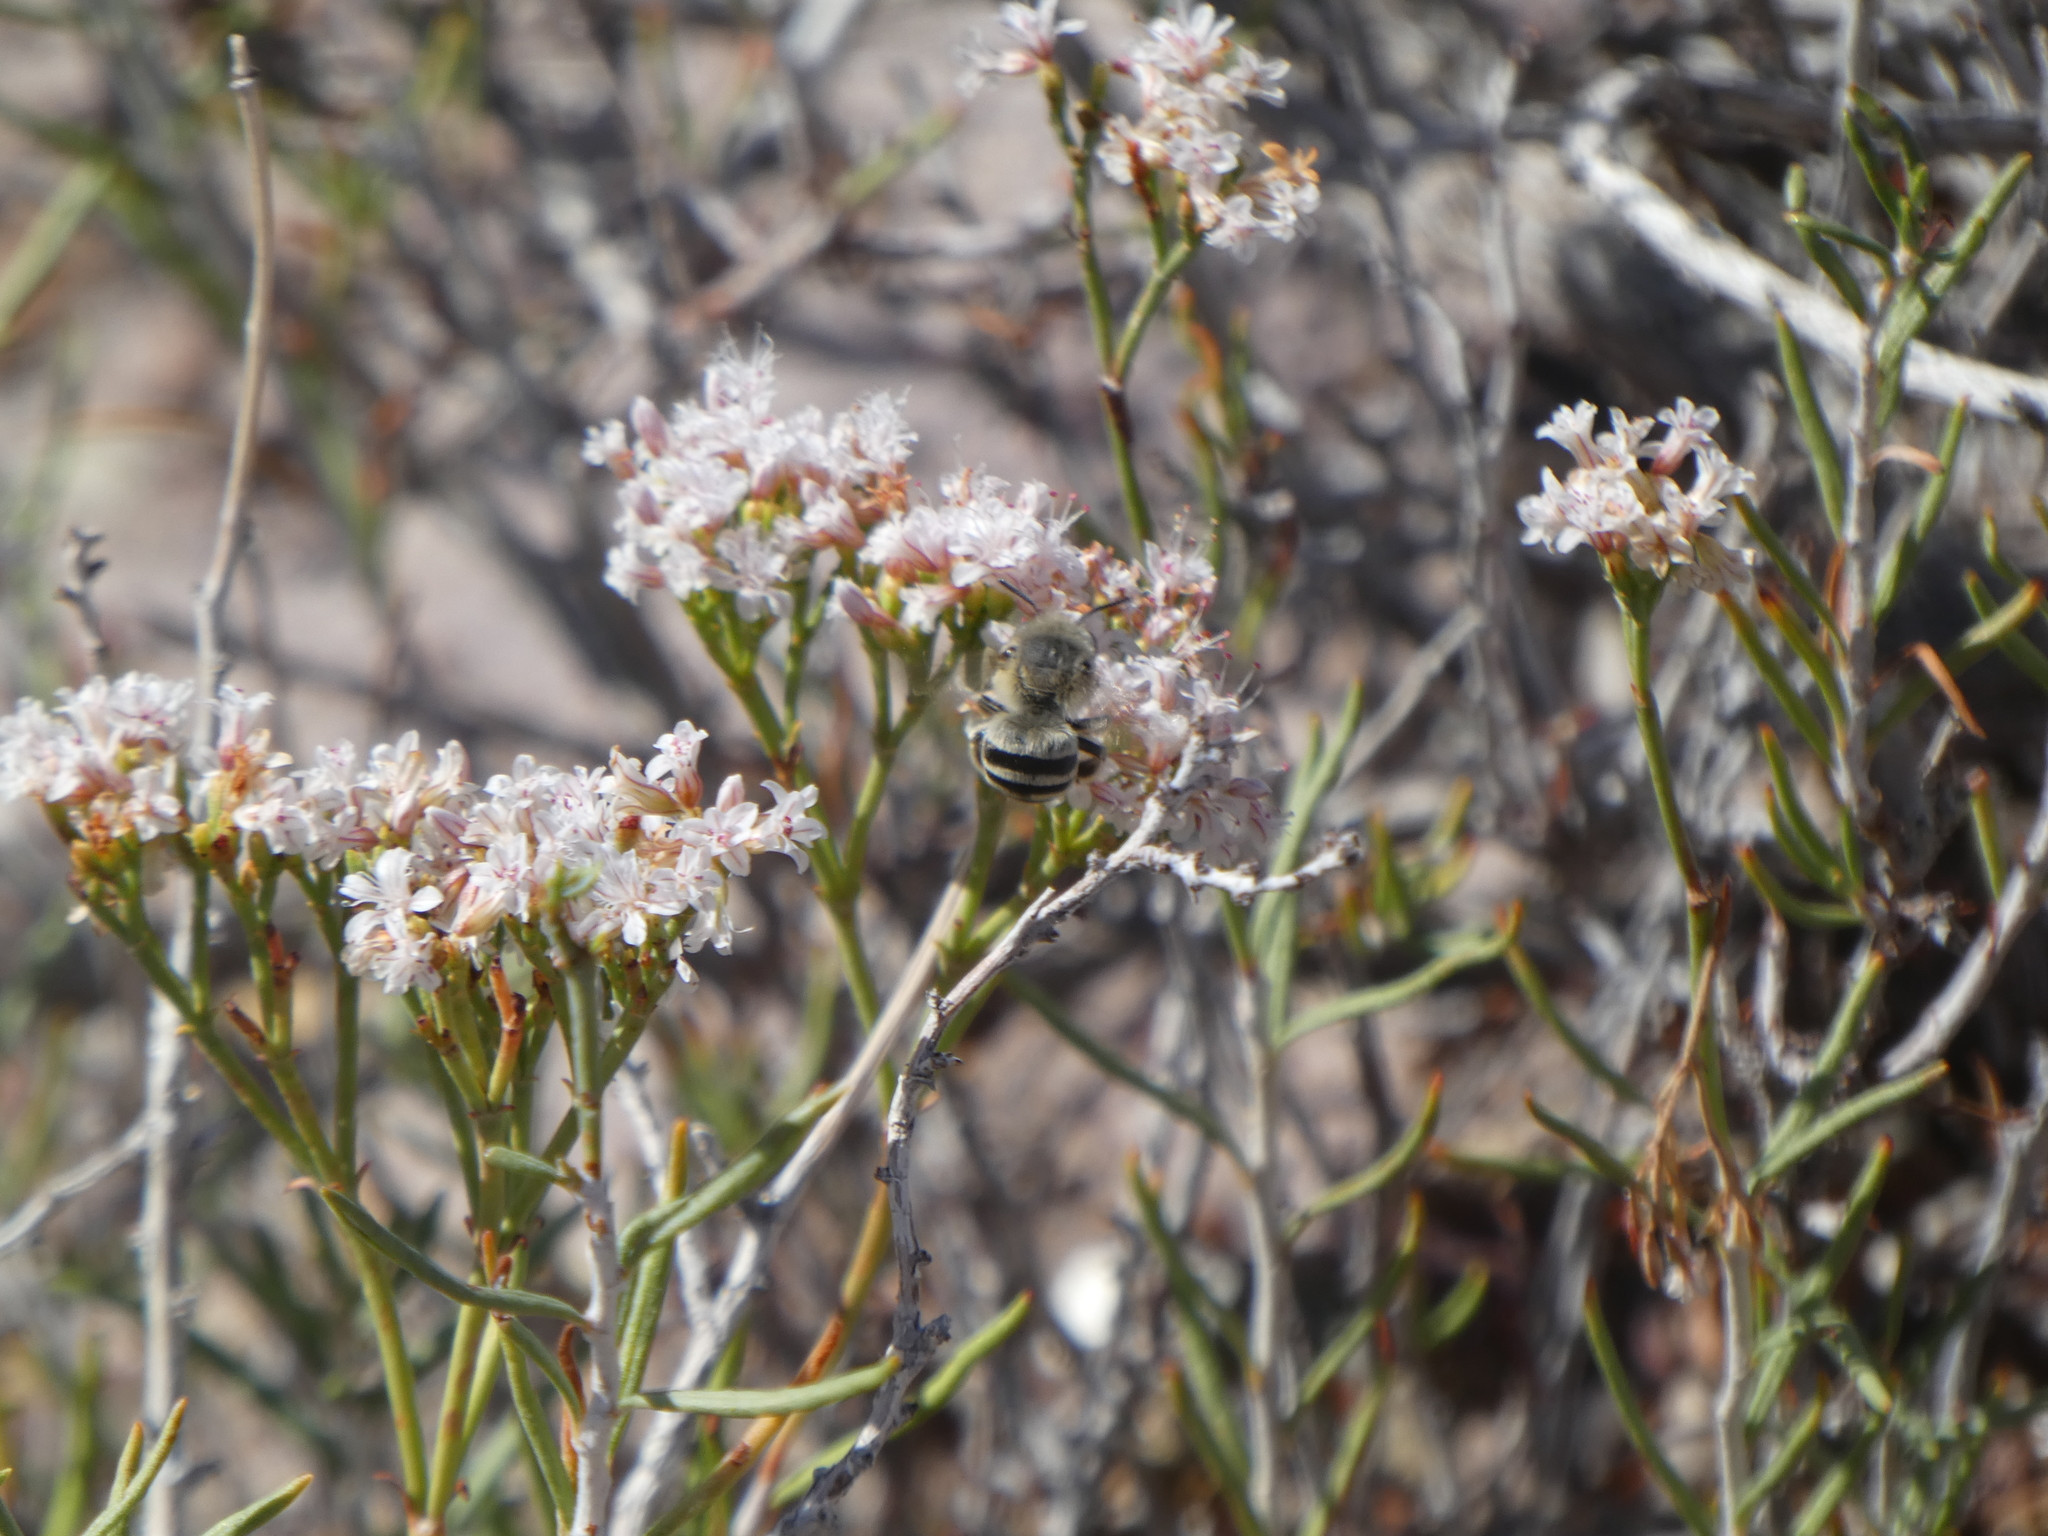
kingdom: Animalia
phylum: Arthropoda
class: Insecta
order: Hymenoptera
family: Apidae
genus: Anthophora
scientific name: Anthophora urbana
